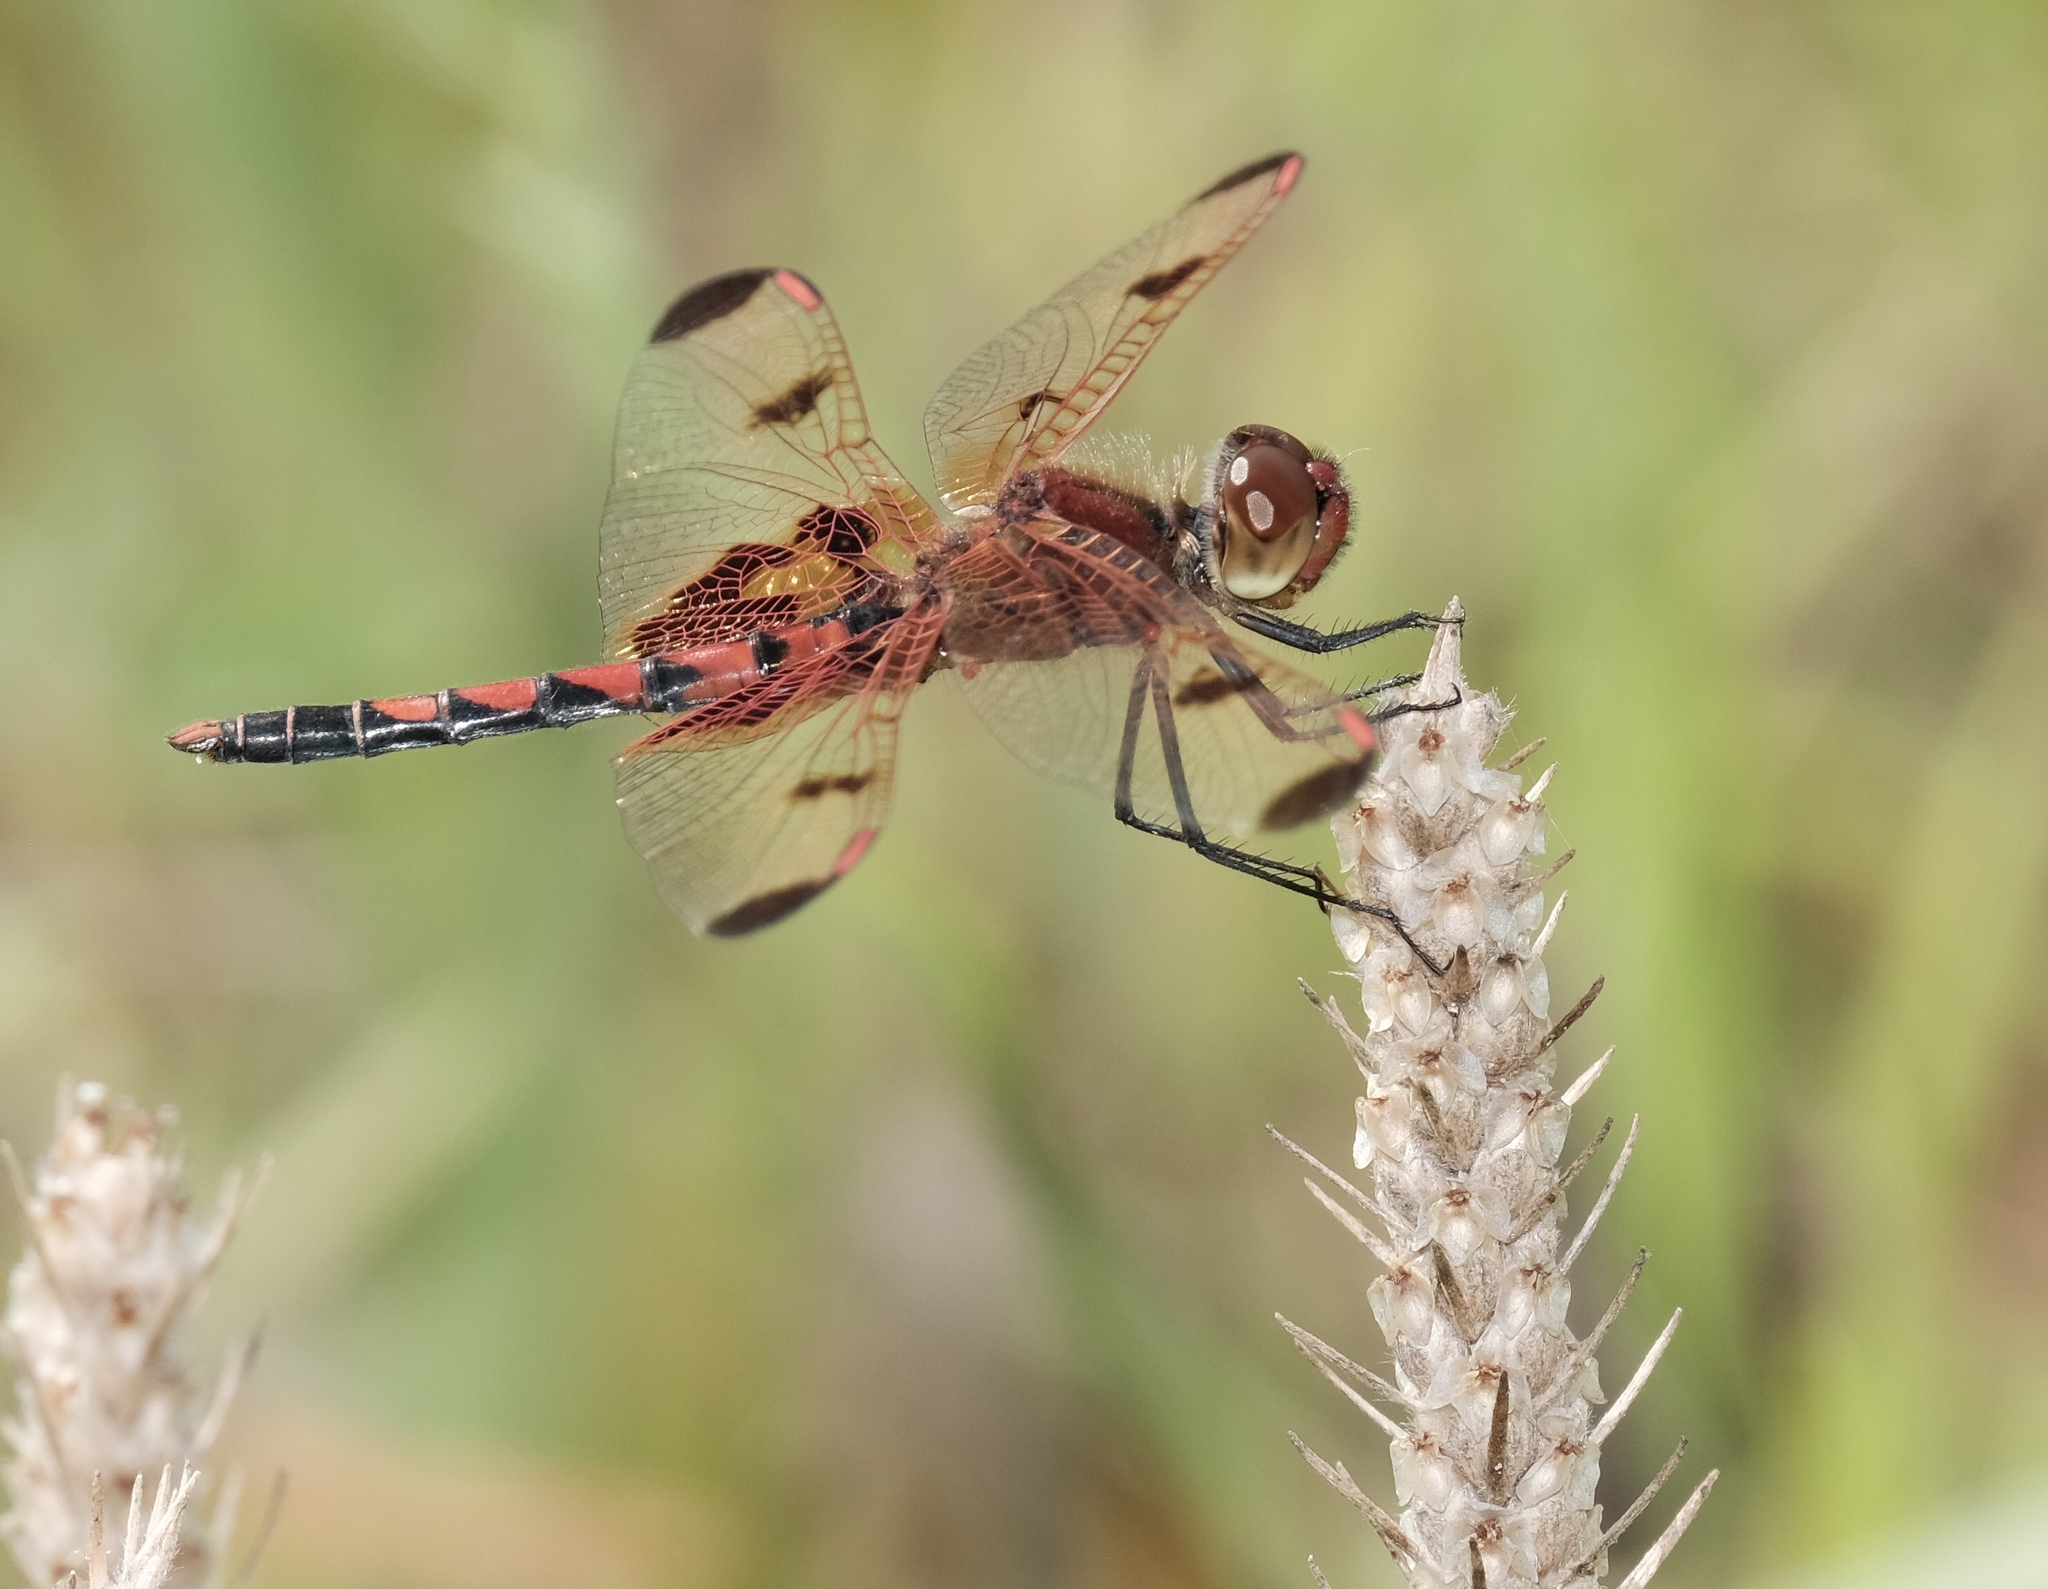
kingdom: Animalia
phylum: Arthropoda
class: Insecta
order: Odonata
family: Libellulidae
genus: Celithemis
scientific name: Celithemis elisa
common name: Calico pennant
